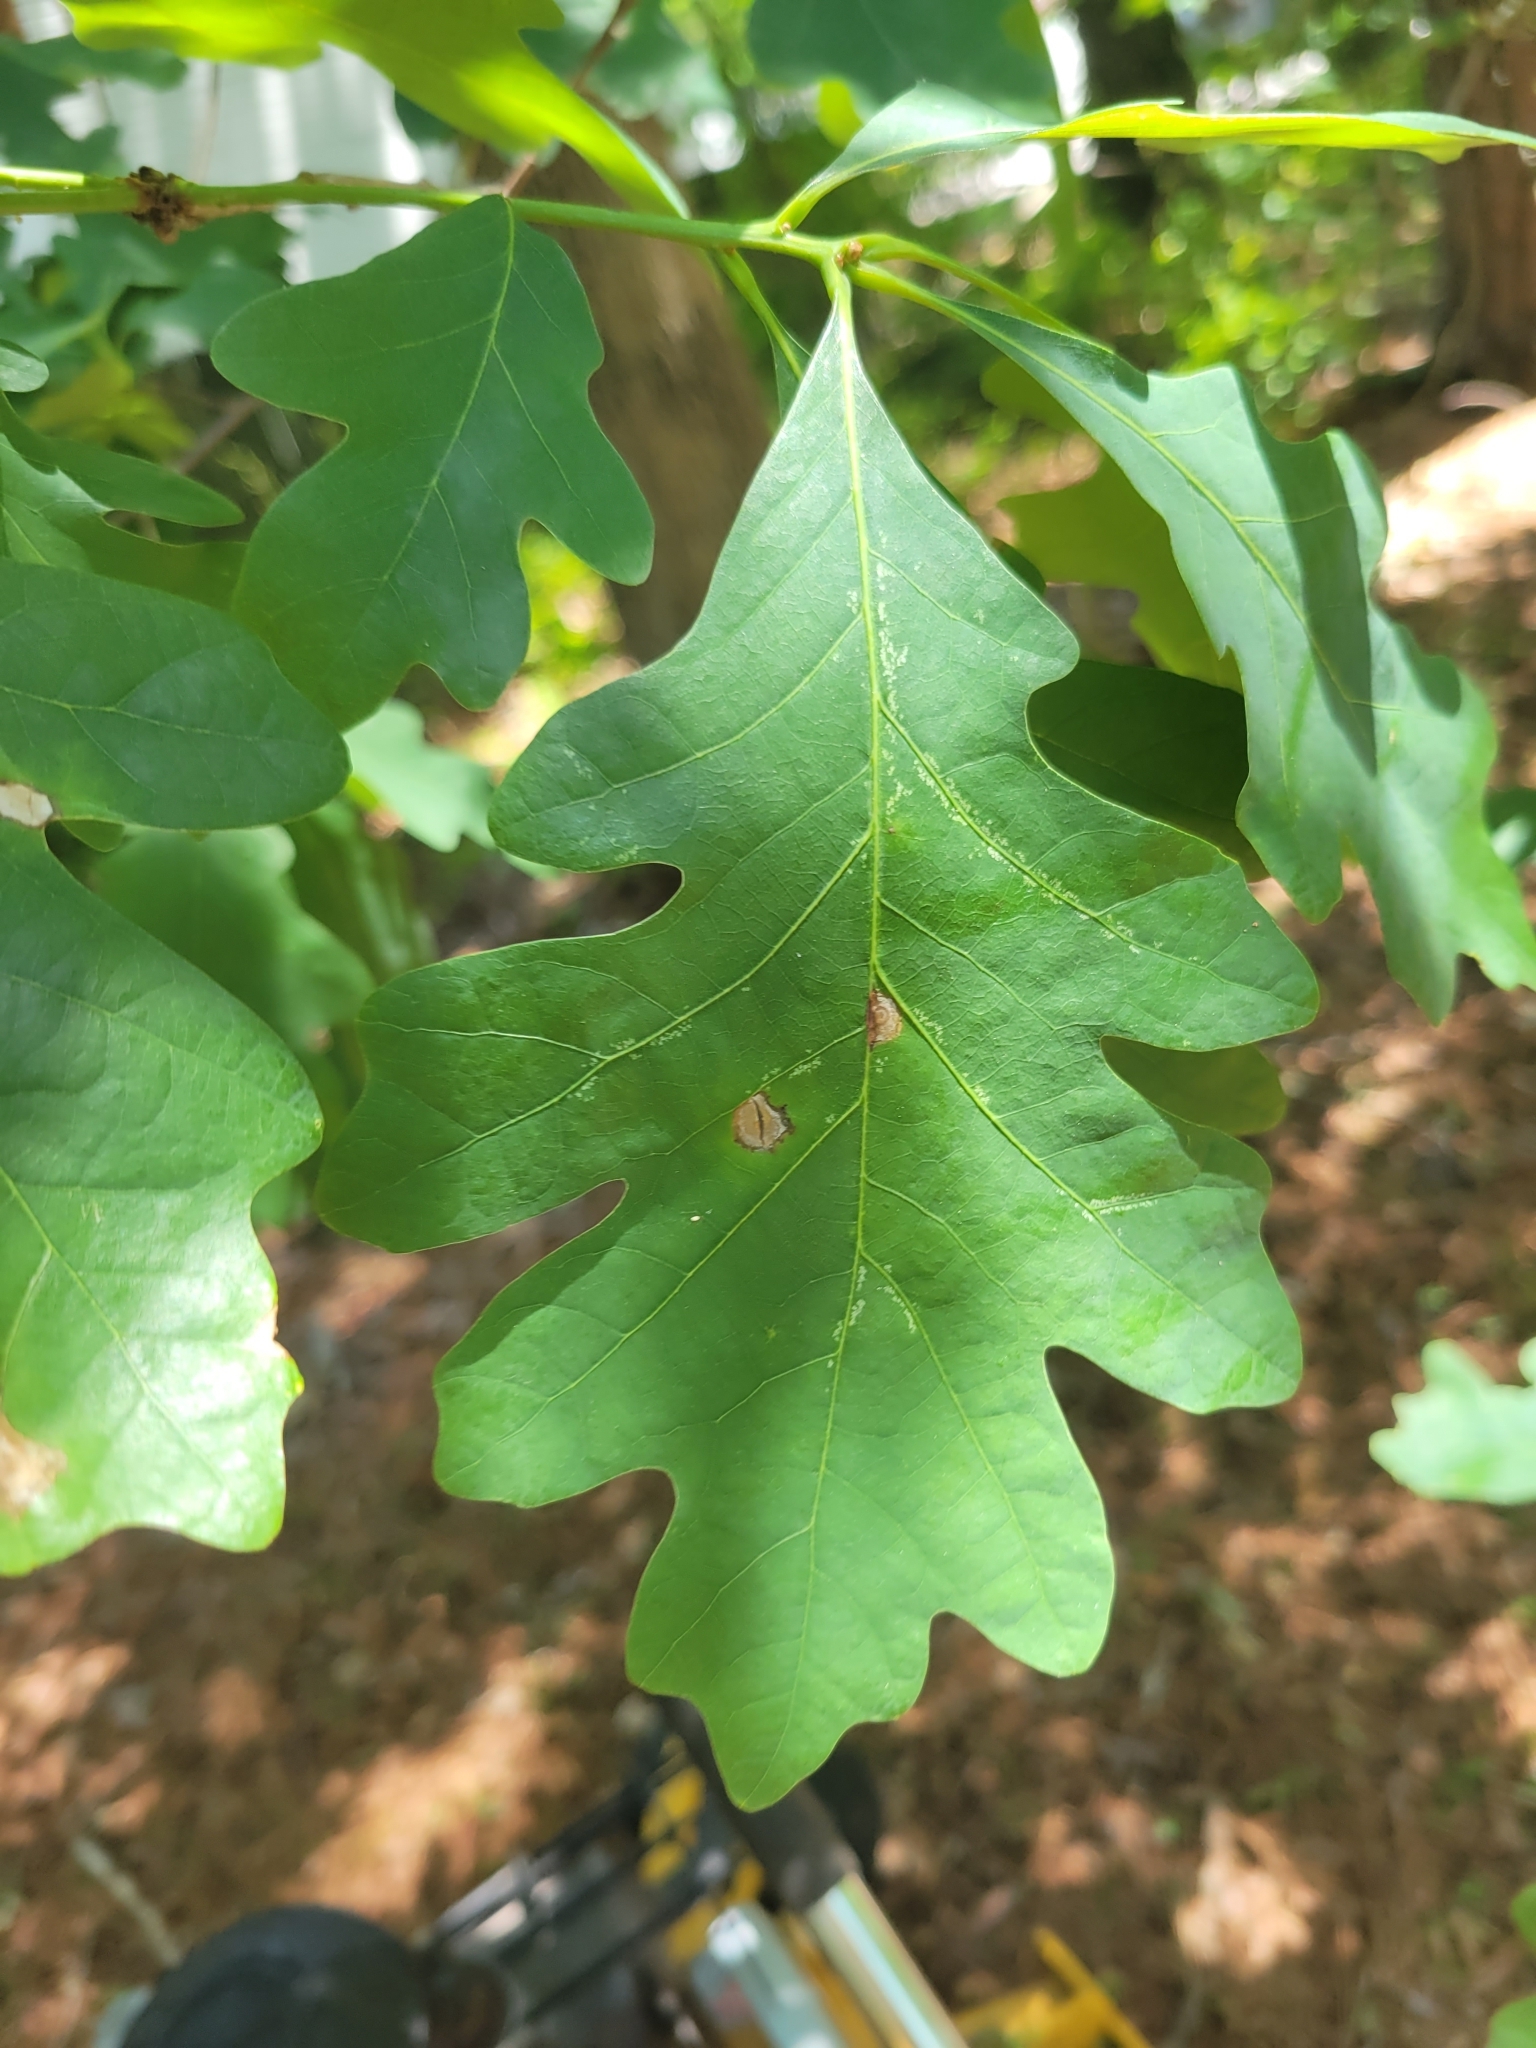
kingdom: Plantae
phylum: Tracheophyta
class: Magnoliopsida
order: Fagales
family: Fagaceae
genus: Quercus
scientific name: Quercus alba
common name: White oak
